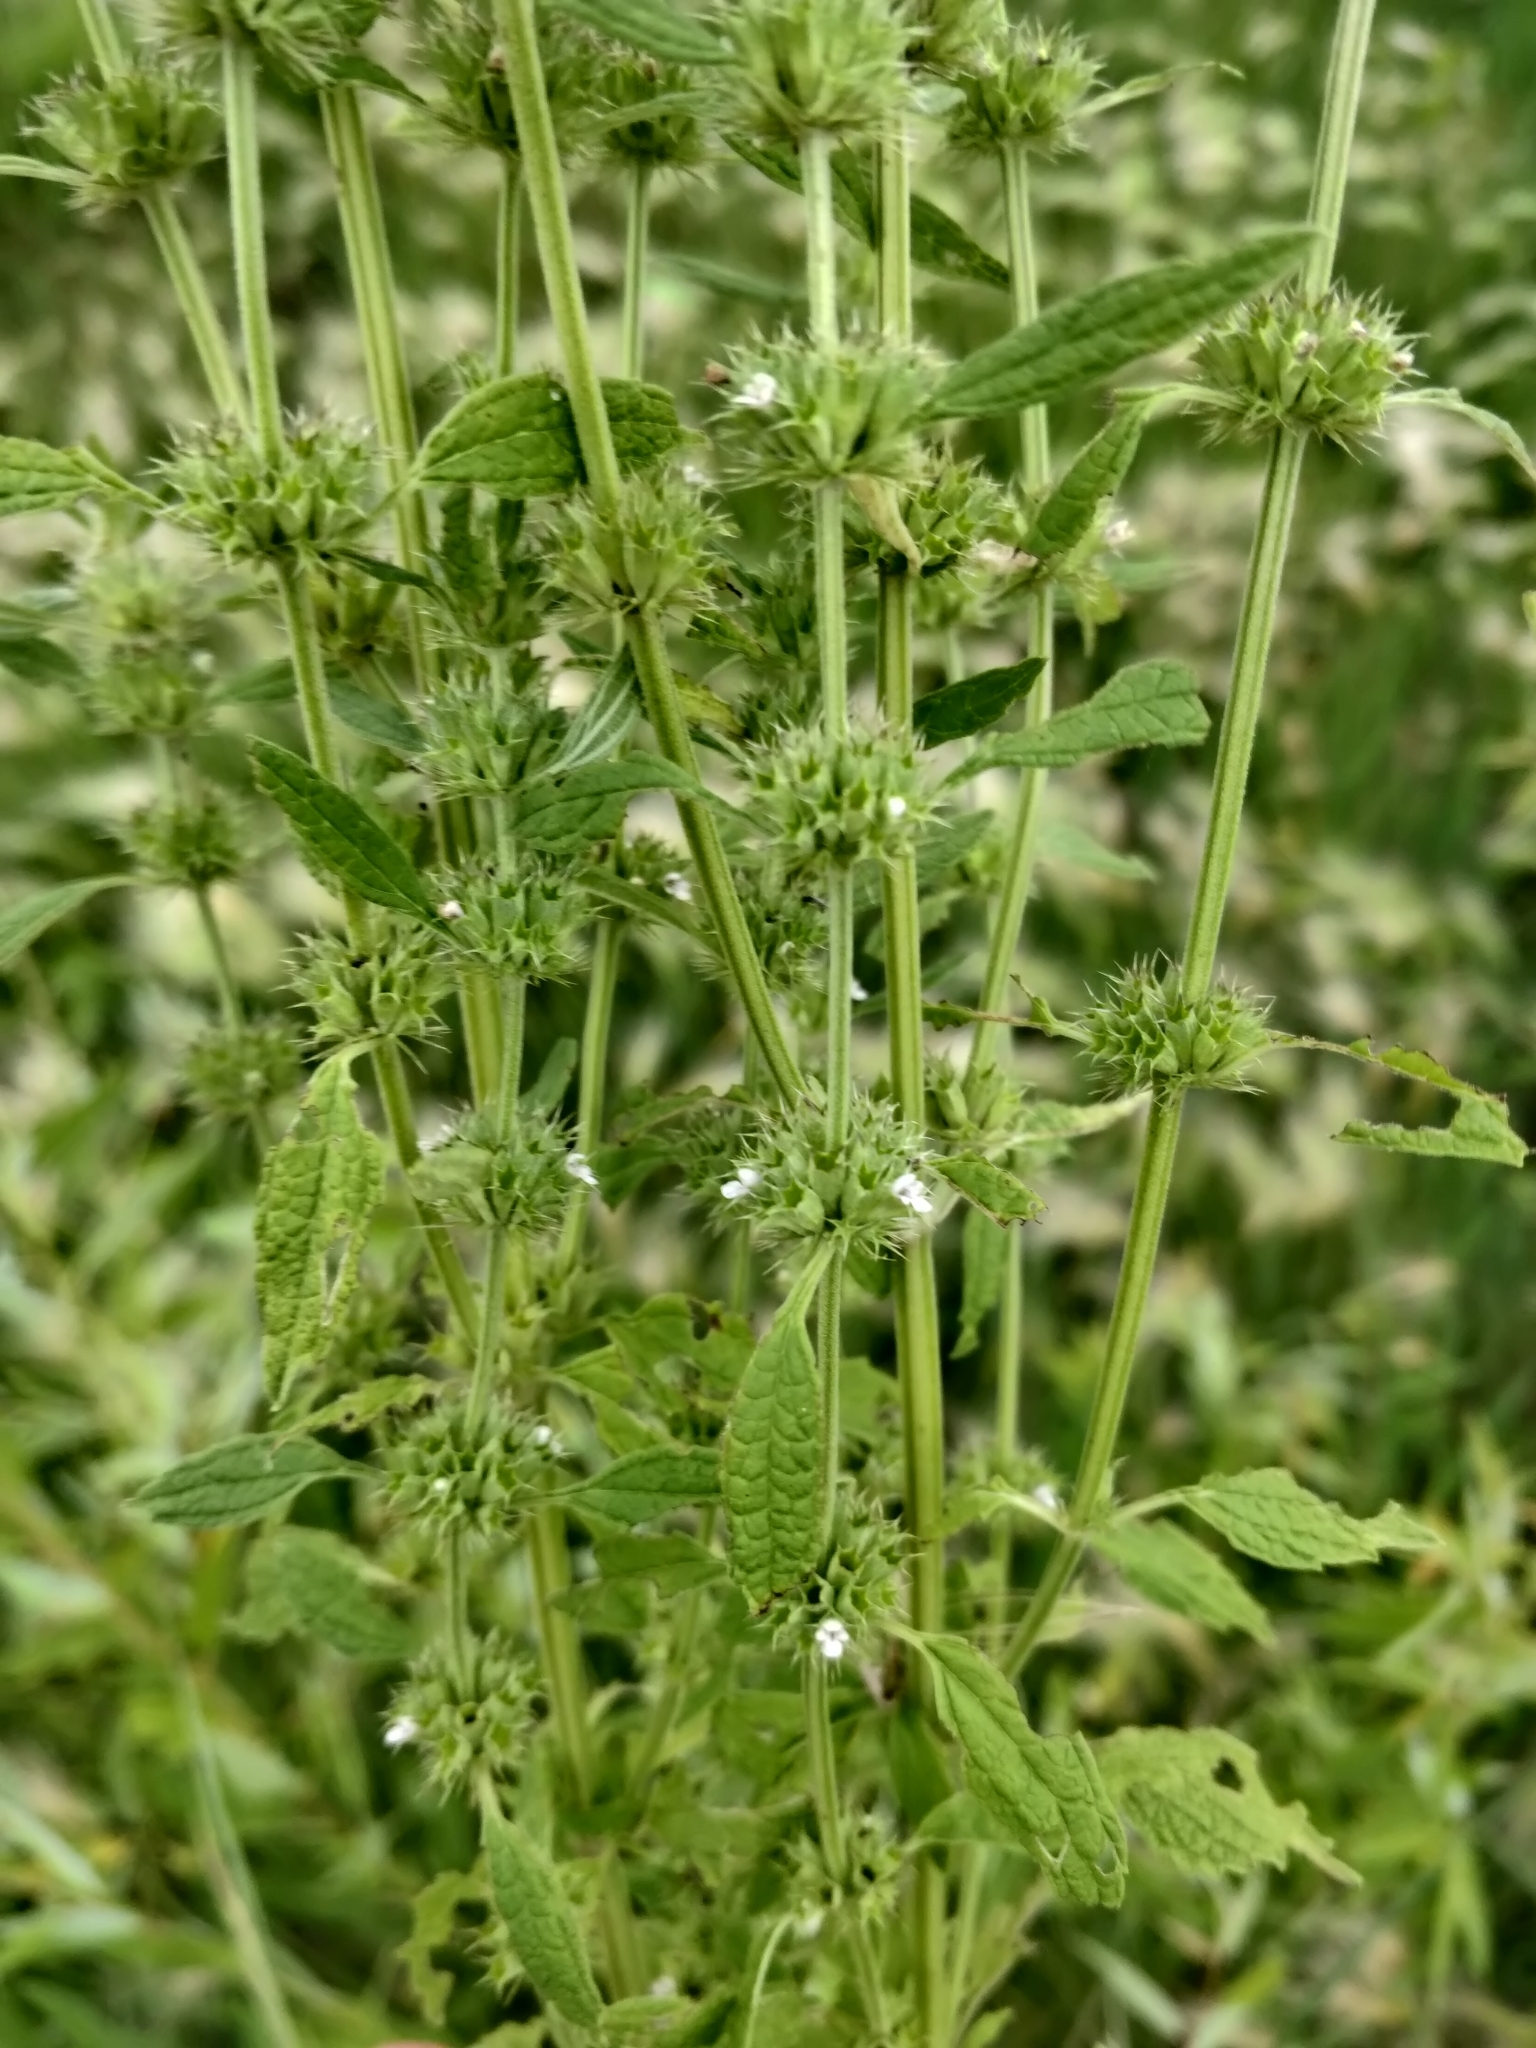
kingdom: Plantae
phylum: Tracheophyta
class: Magnoliopsida
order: Lamiales
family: Lamiaceae
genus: Chaiturus
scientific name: Chaiturus marrubiastrum
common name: Lion's tail
